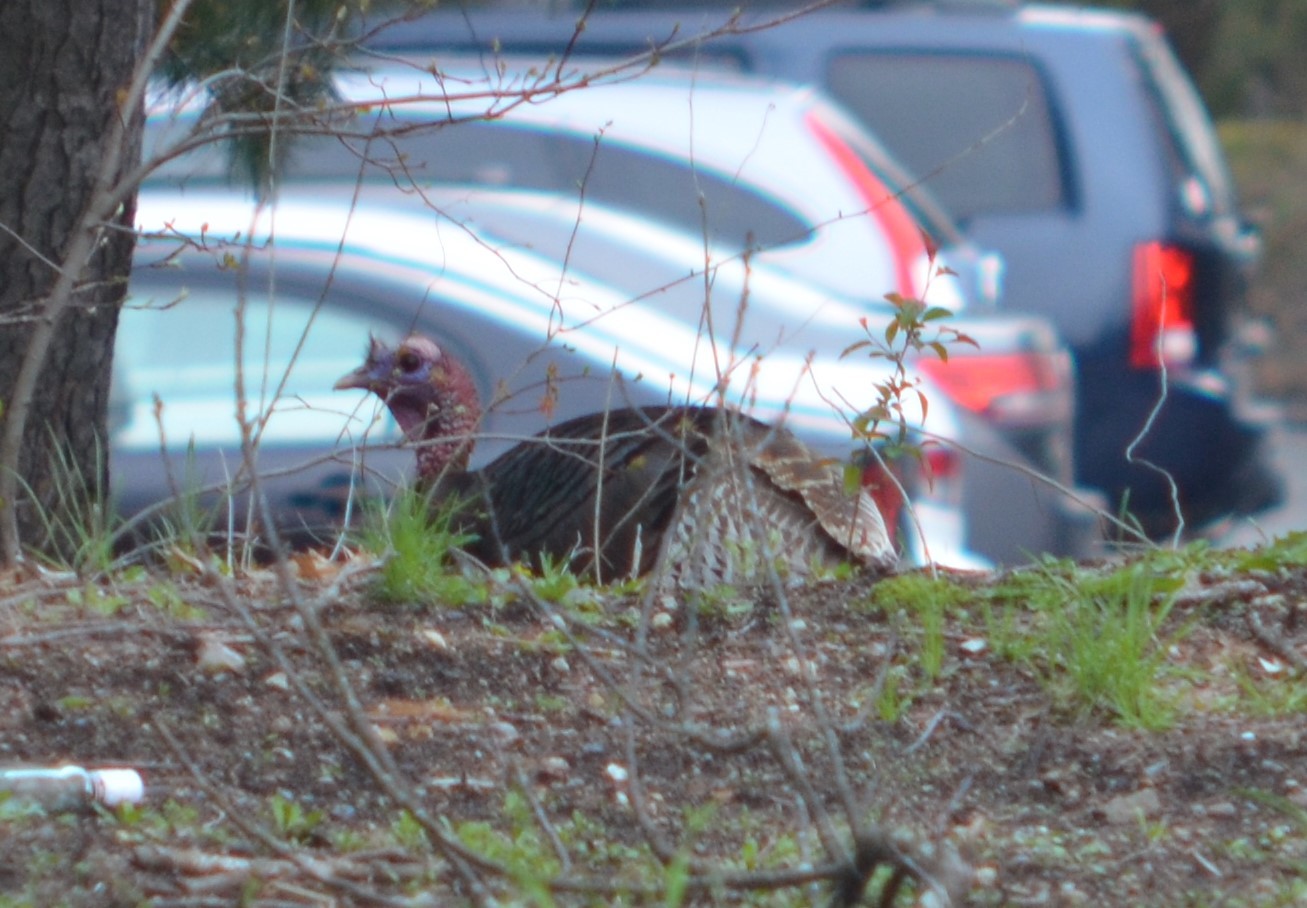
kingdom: Animalia
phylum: Chordata
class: Aves
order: Galliformes
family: Phasianidae
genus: Meleagris
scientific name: Meleagris gallopavo
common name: Wild turkey
